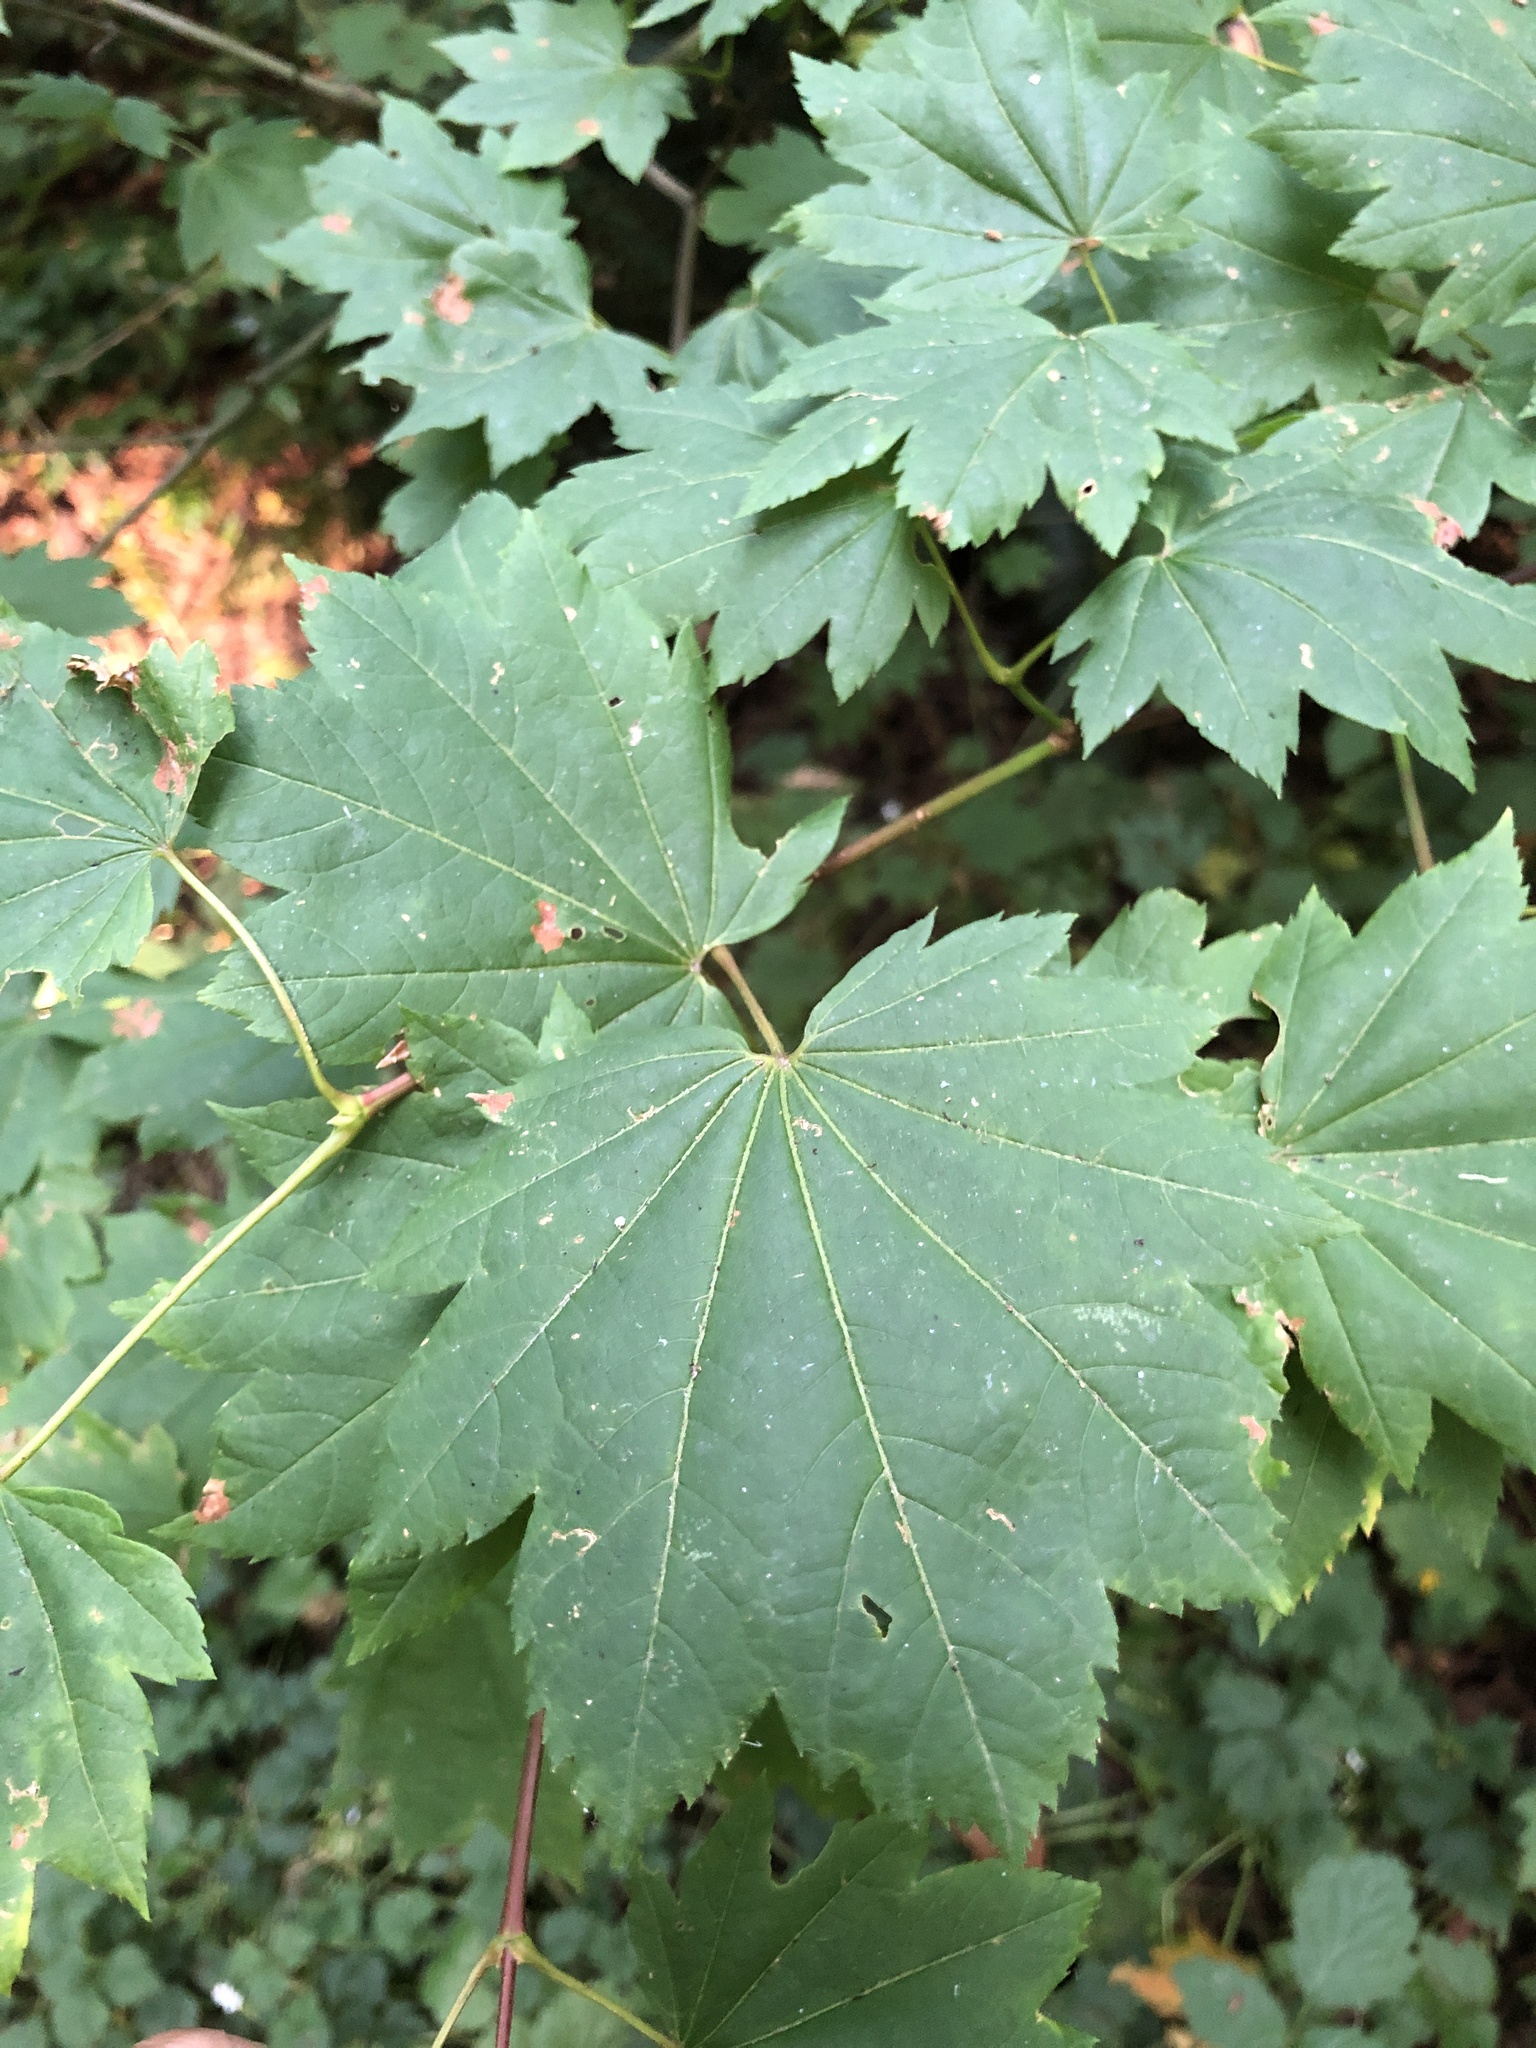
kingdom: Plantae
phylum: Tracheophyta
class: Magnoliopsida
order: Sapindales
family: Sapindaceae
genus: Acer
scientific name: Acer circinatum
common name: Vine maple
